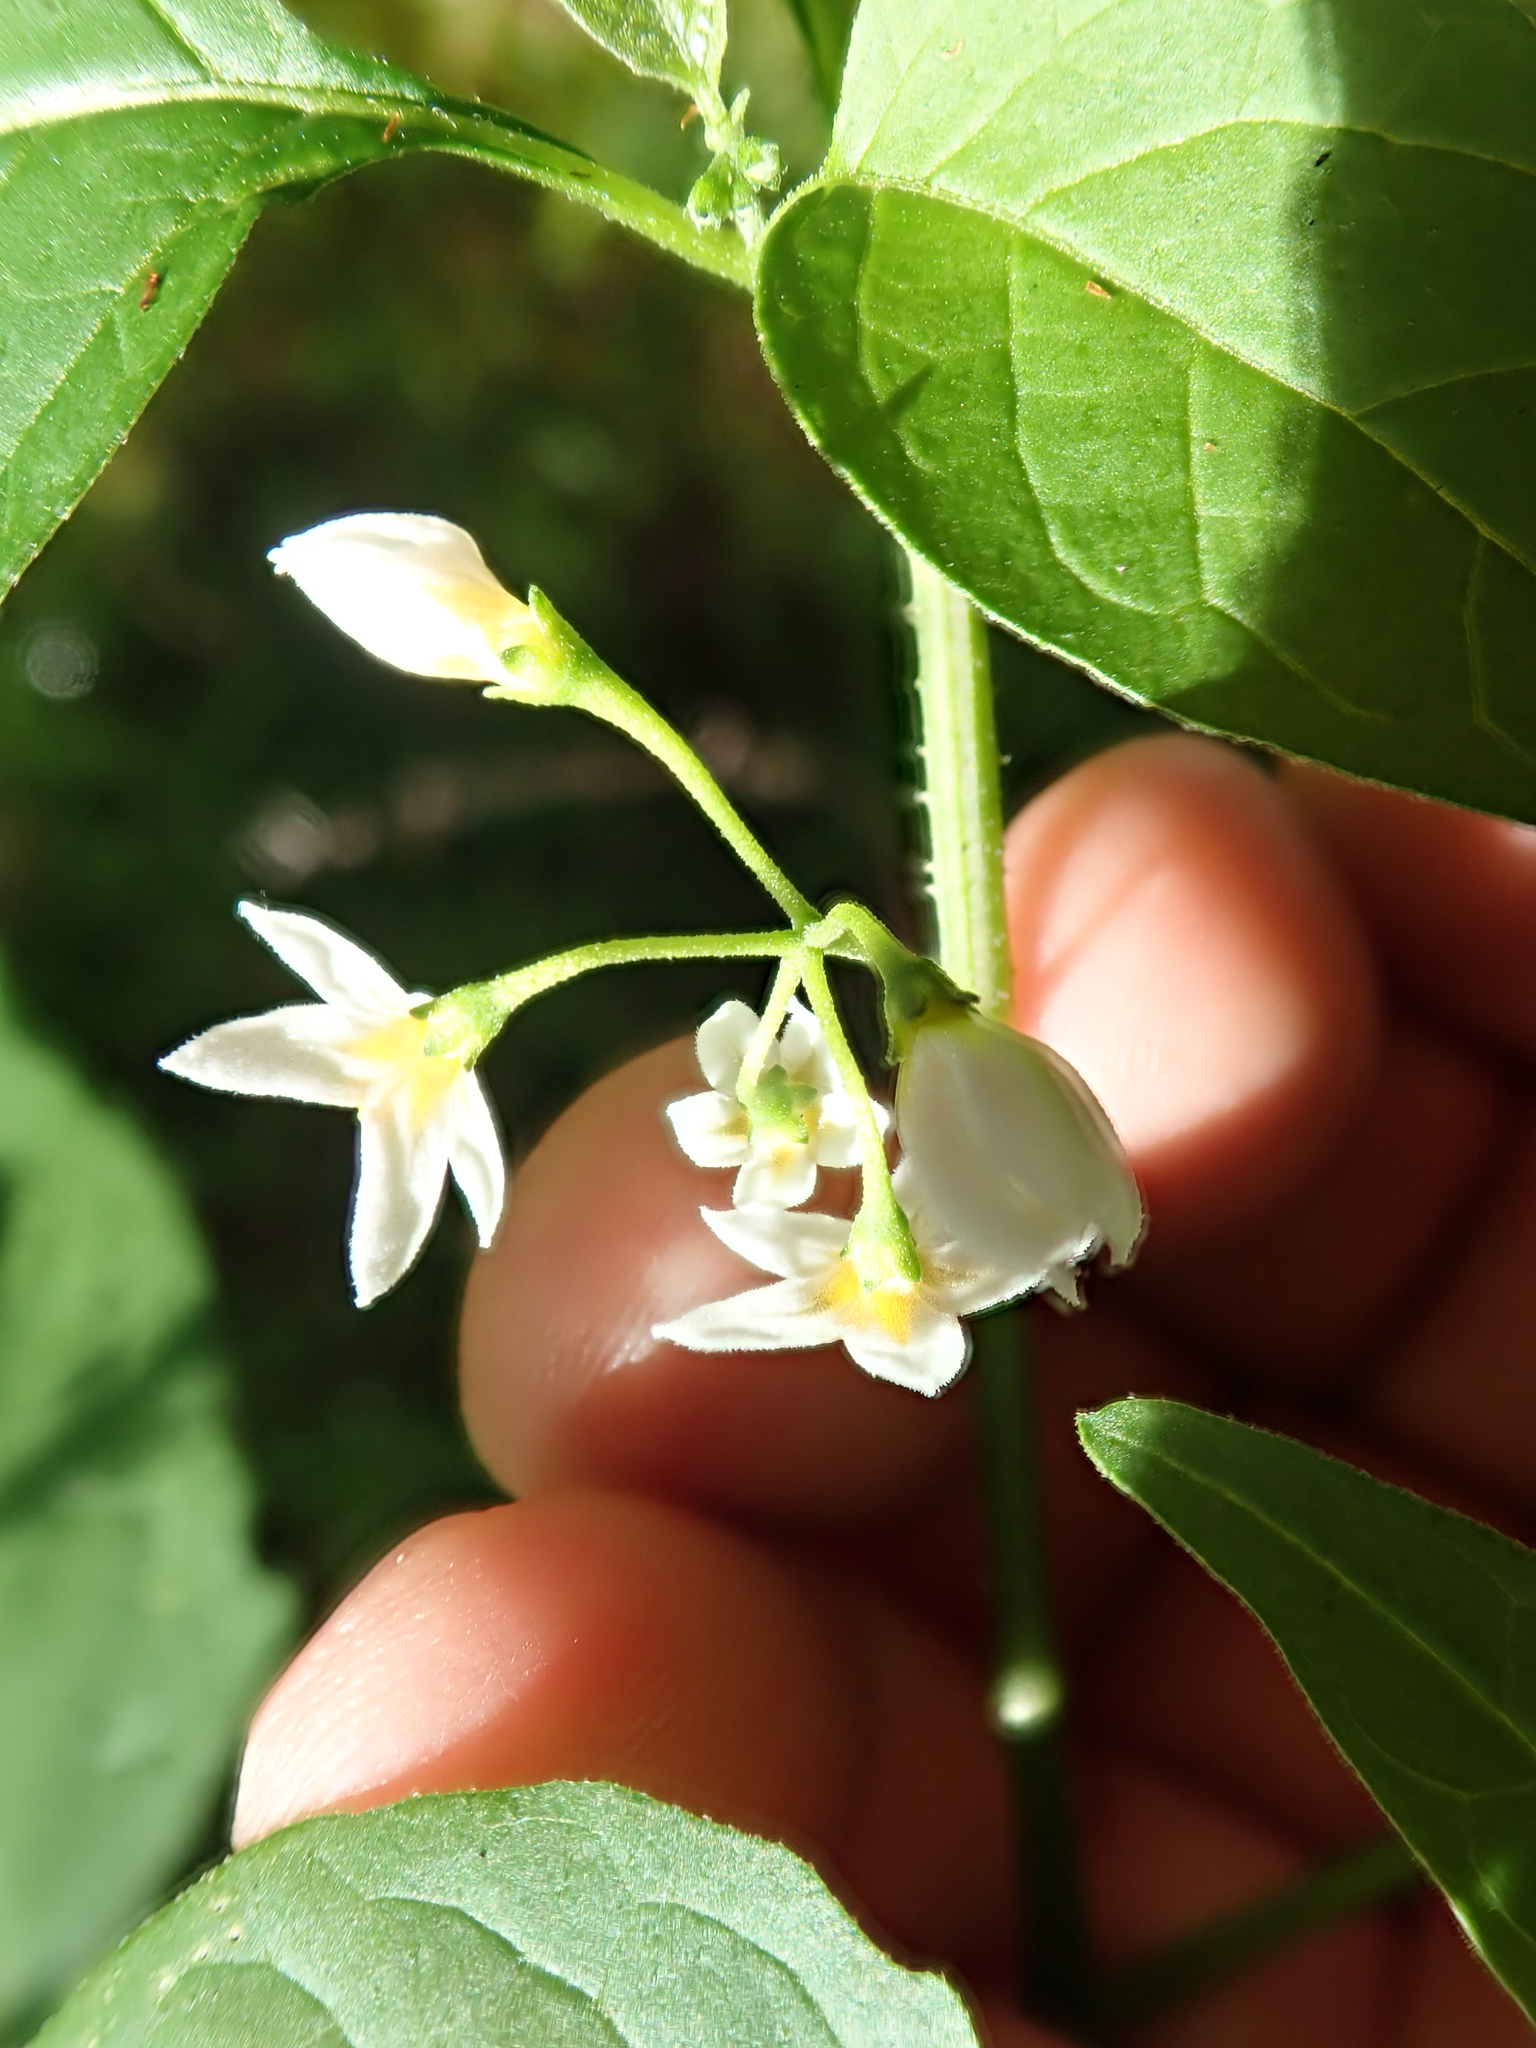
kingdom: Plantae
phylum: Tracheophyta
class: Magnoliopsida
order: Solanales
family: Solanaceae
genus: Solanum
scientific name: Solanum americanum
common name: American black nightshade
